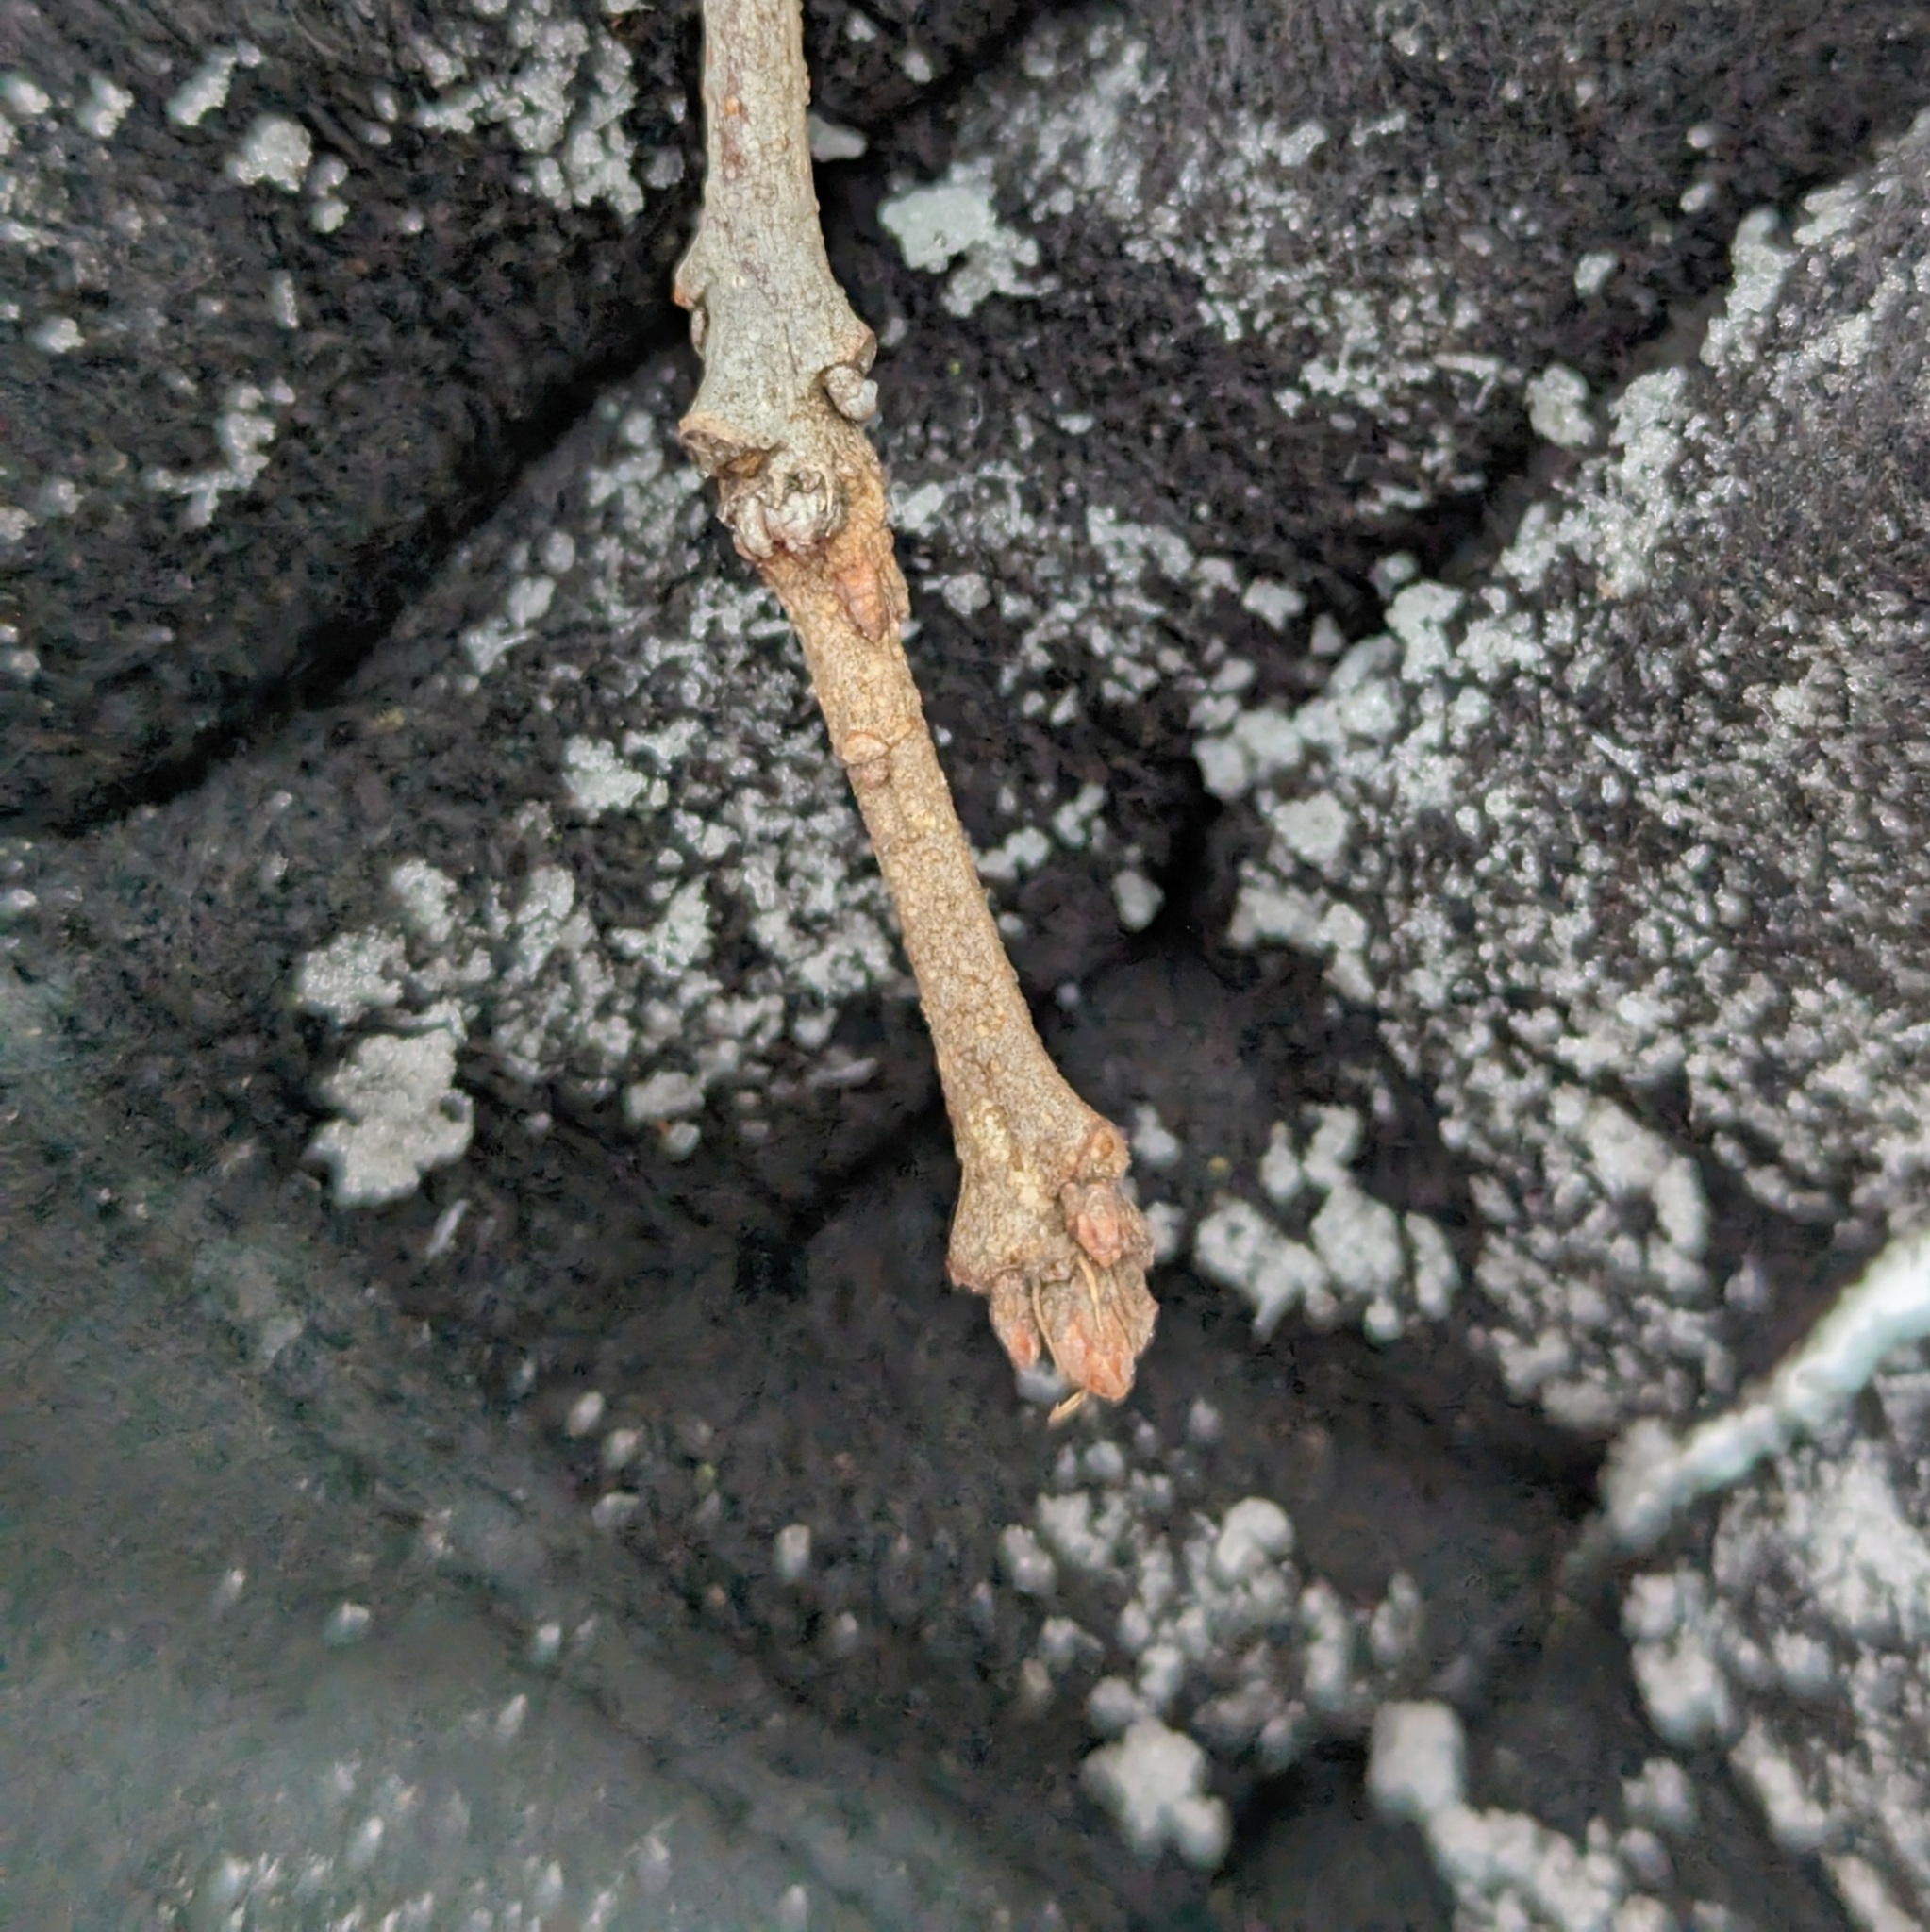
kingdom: Plantae
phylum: Tracheophyta
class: Magnoliopsida
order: Fagales
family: Fagaceae
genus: Quercus
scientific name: Quercus macrocarpa
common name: Bur oak
